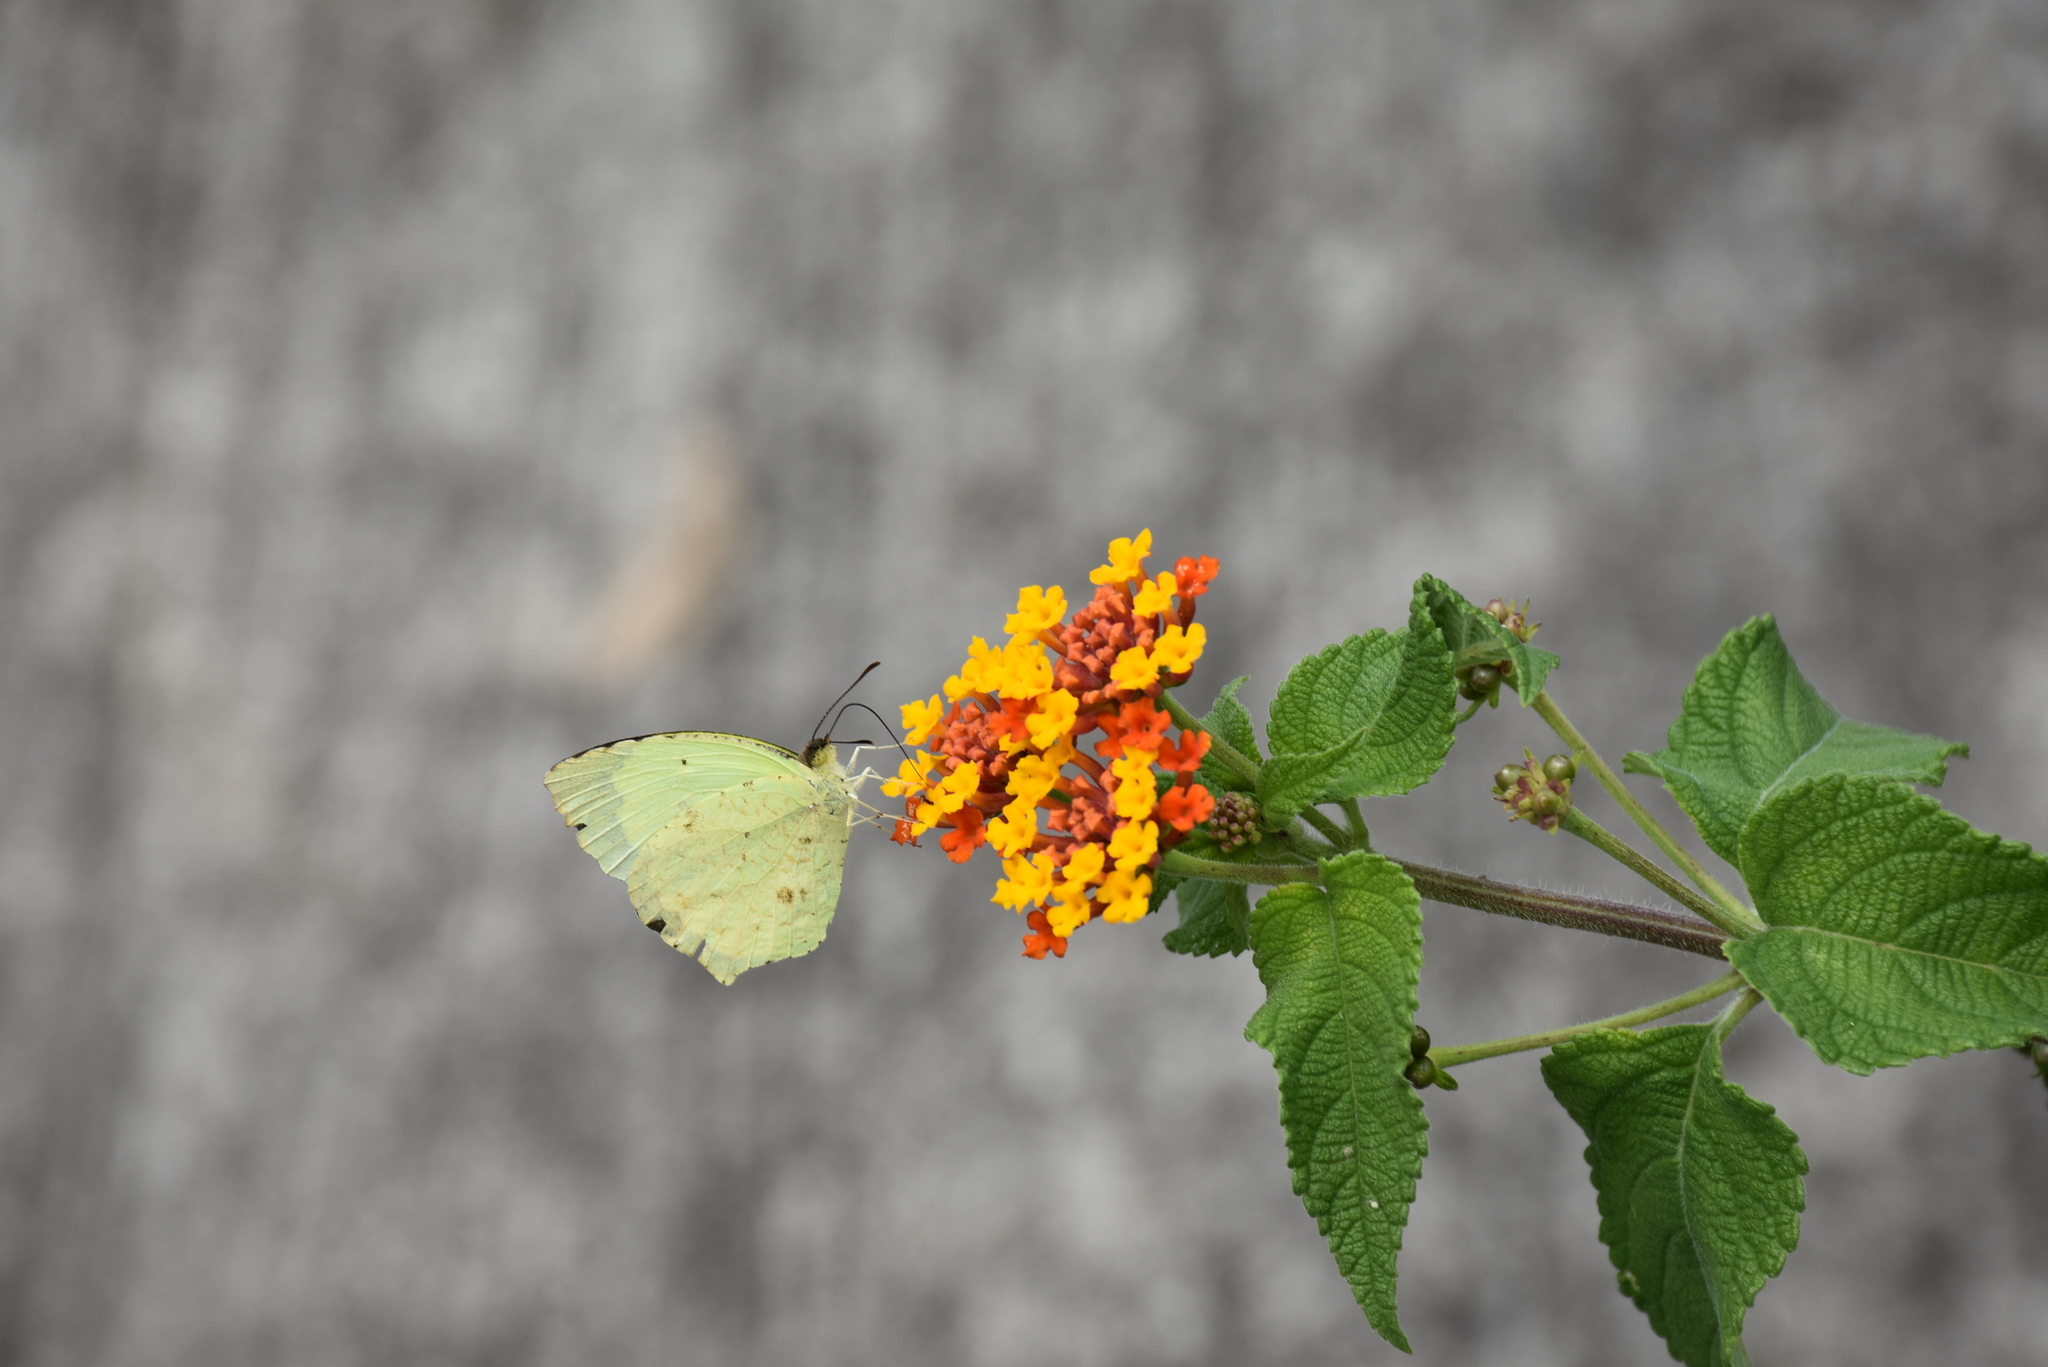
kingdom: Animalia
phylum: Arthropoda
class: Insecta
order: Lepidoptera
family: Pieridae
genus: Abaeis
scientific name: Abaeis salome
